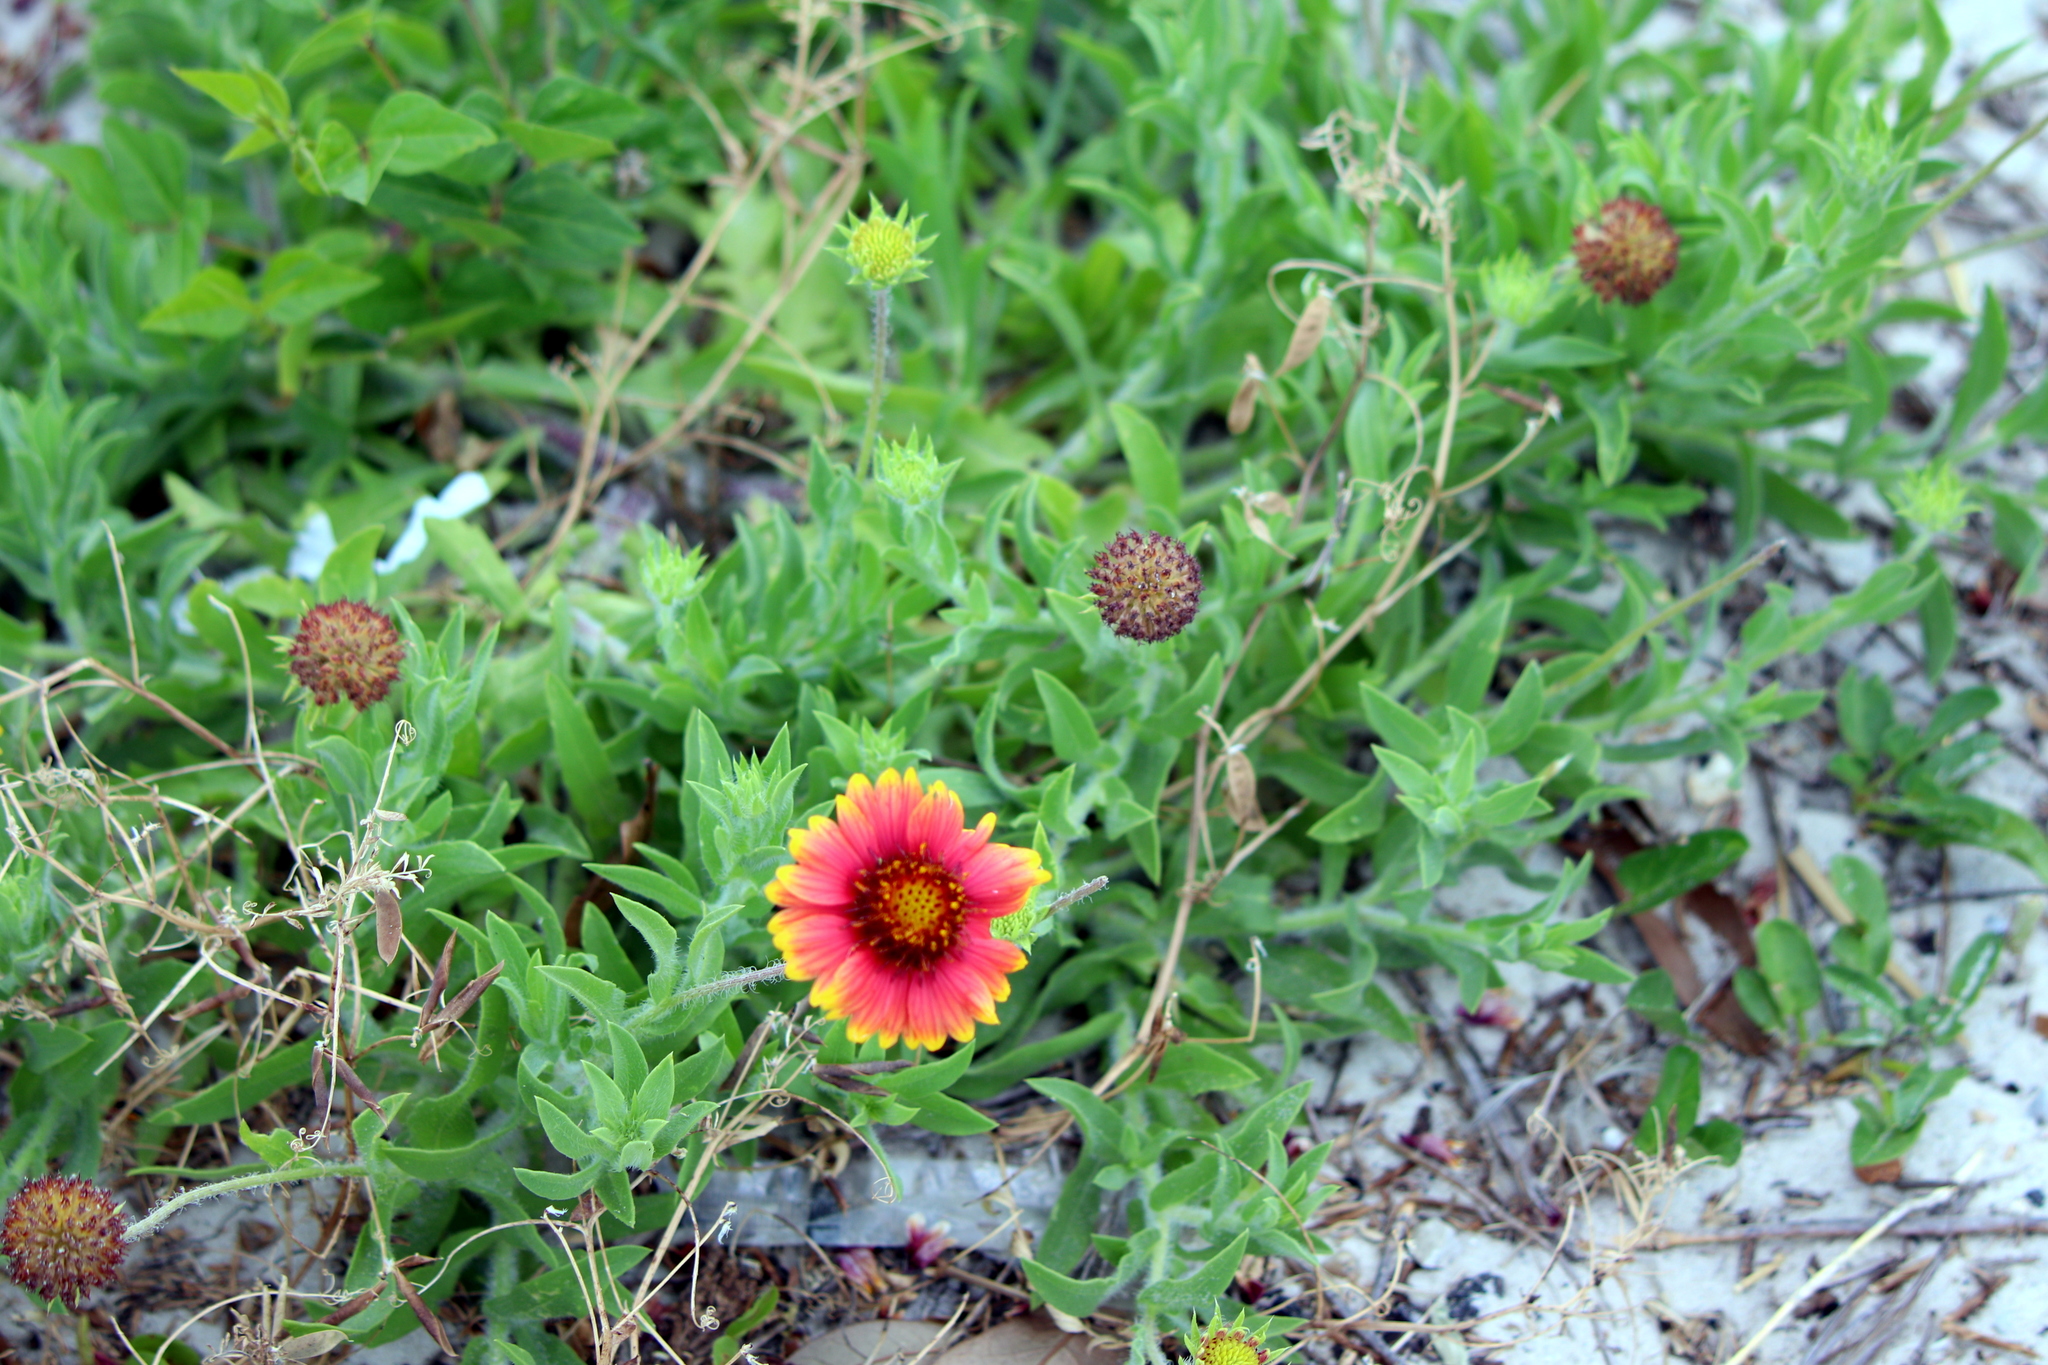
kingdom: Plantae
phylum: Tracheophyta
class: Magnoliopsida
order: Asterales
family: Asteraceae
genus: Gaillardia
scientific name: Gaillardia pulchella
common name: Firewheel
